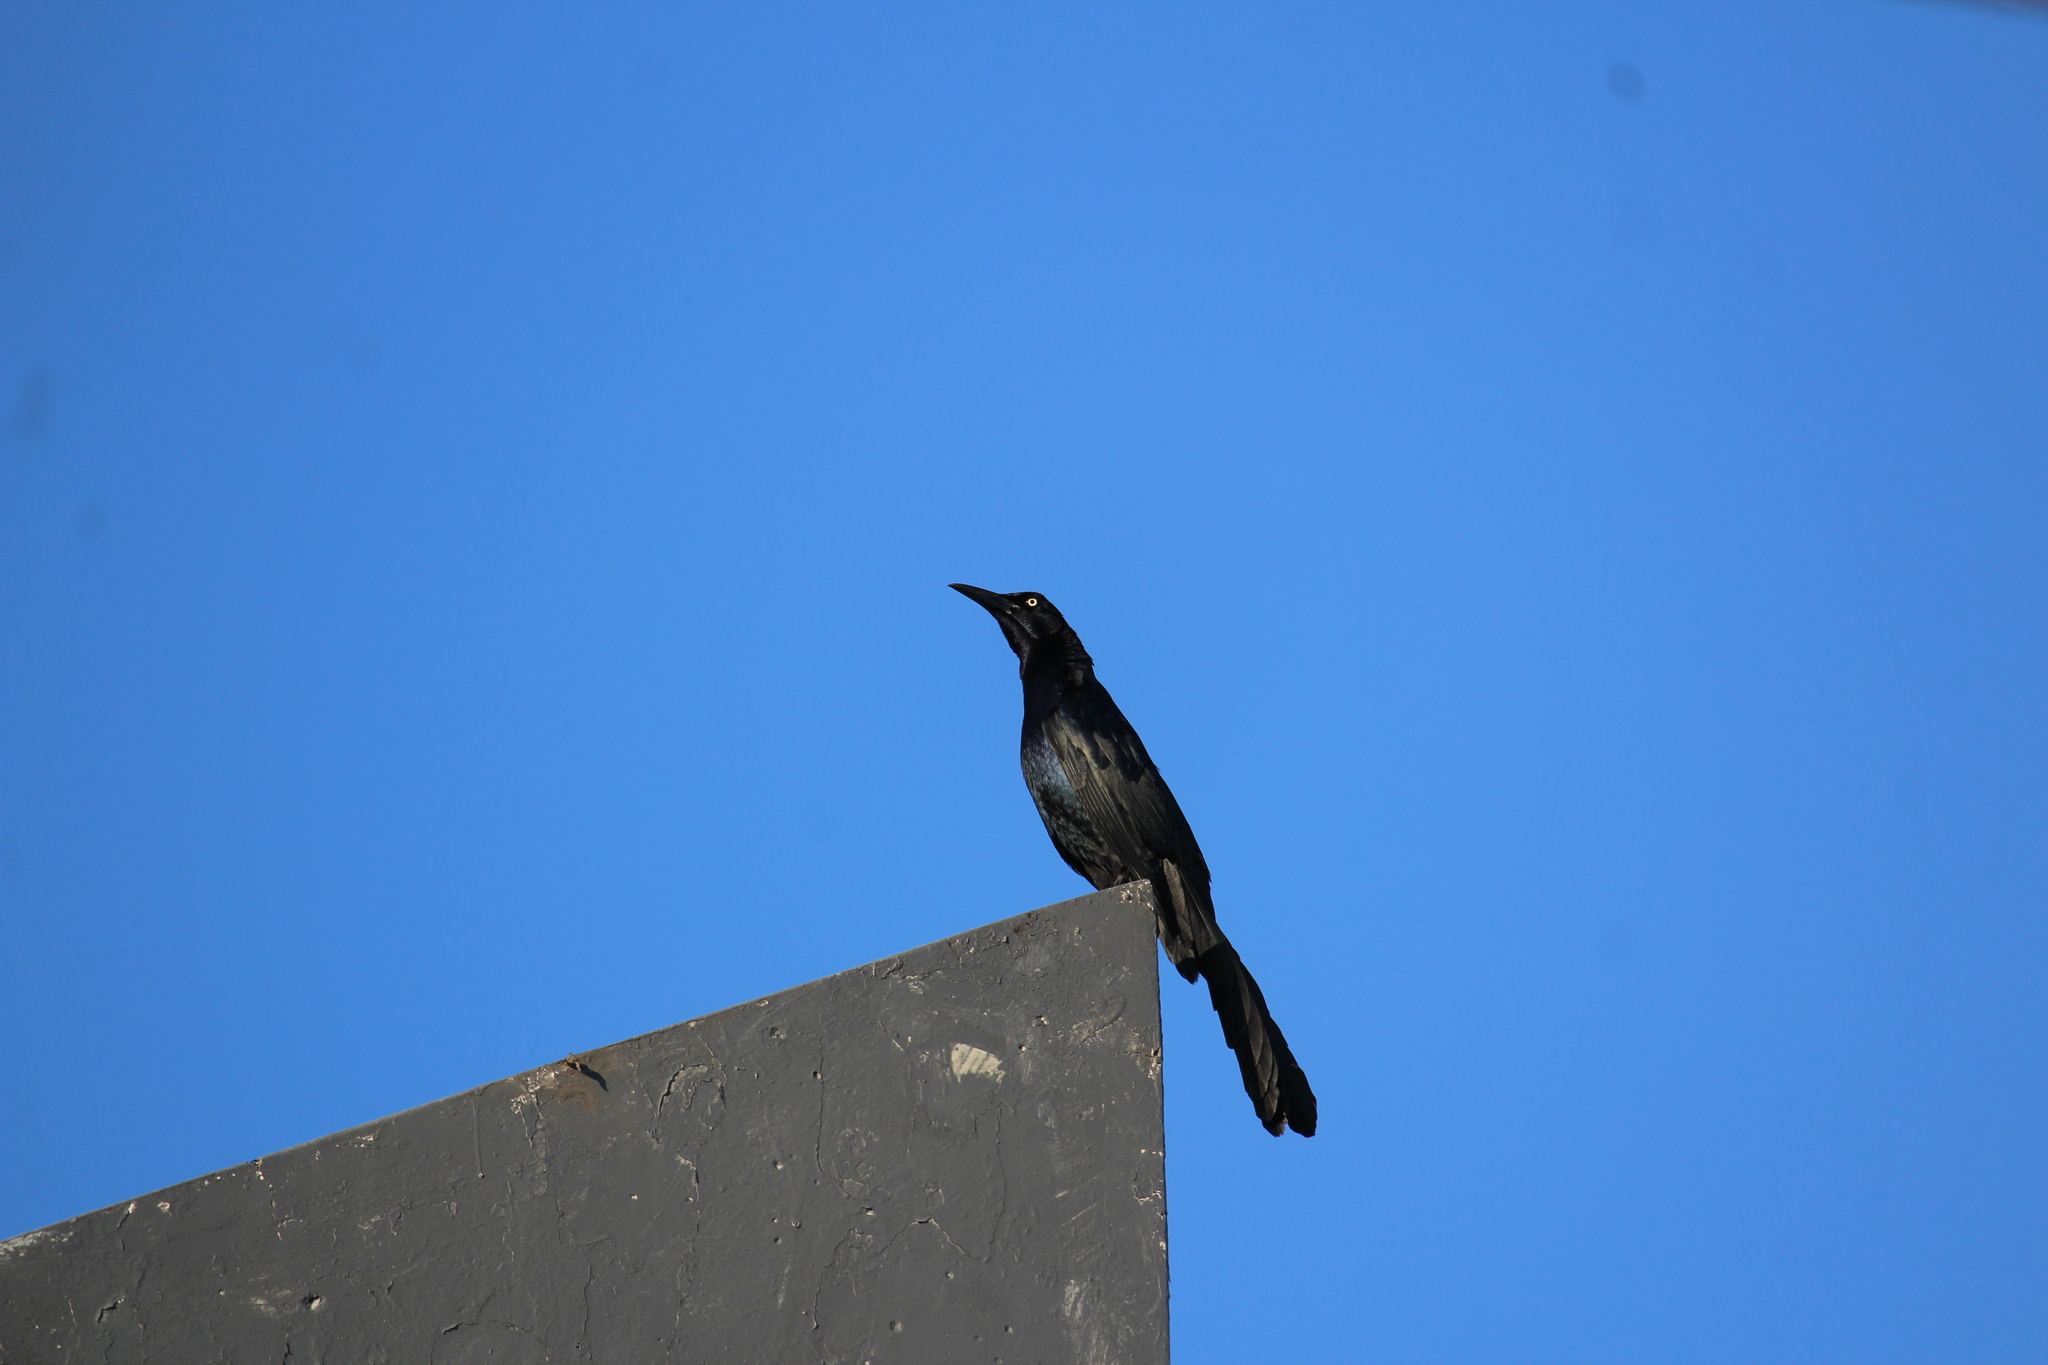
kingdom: Animalia
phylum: Chordata
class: Aves
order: Passeriformes
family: Icteridae
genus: Quiscalus
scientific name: Quiscalus mexicanus
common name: Great-tailed grackle
